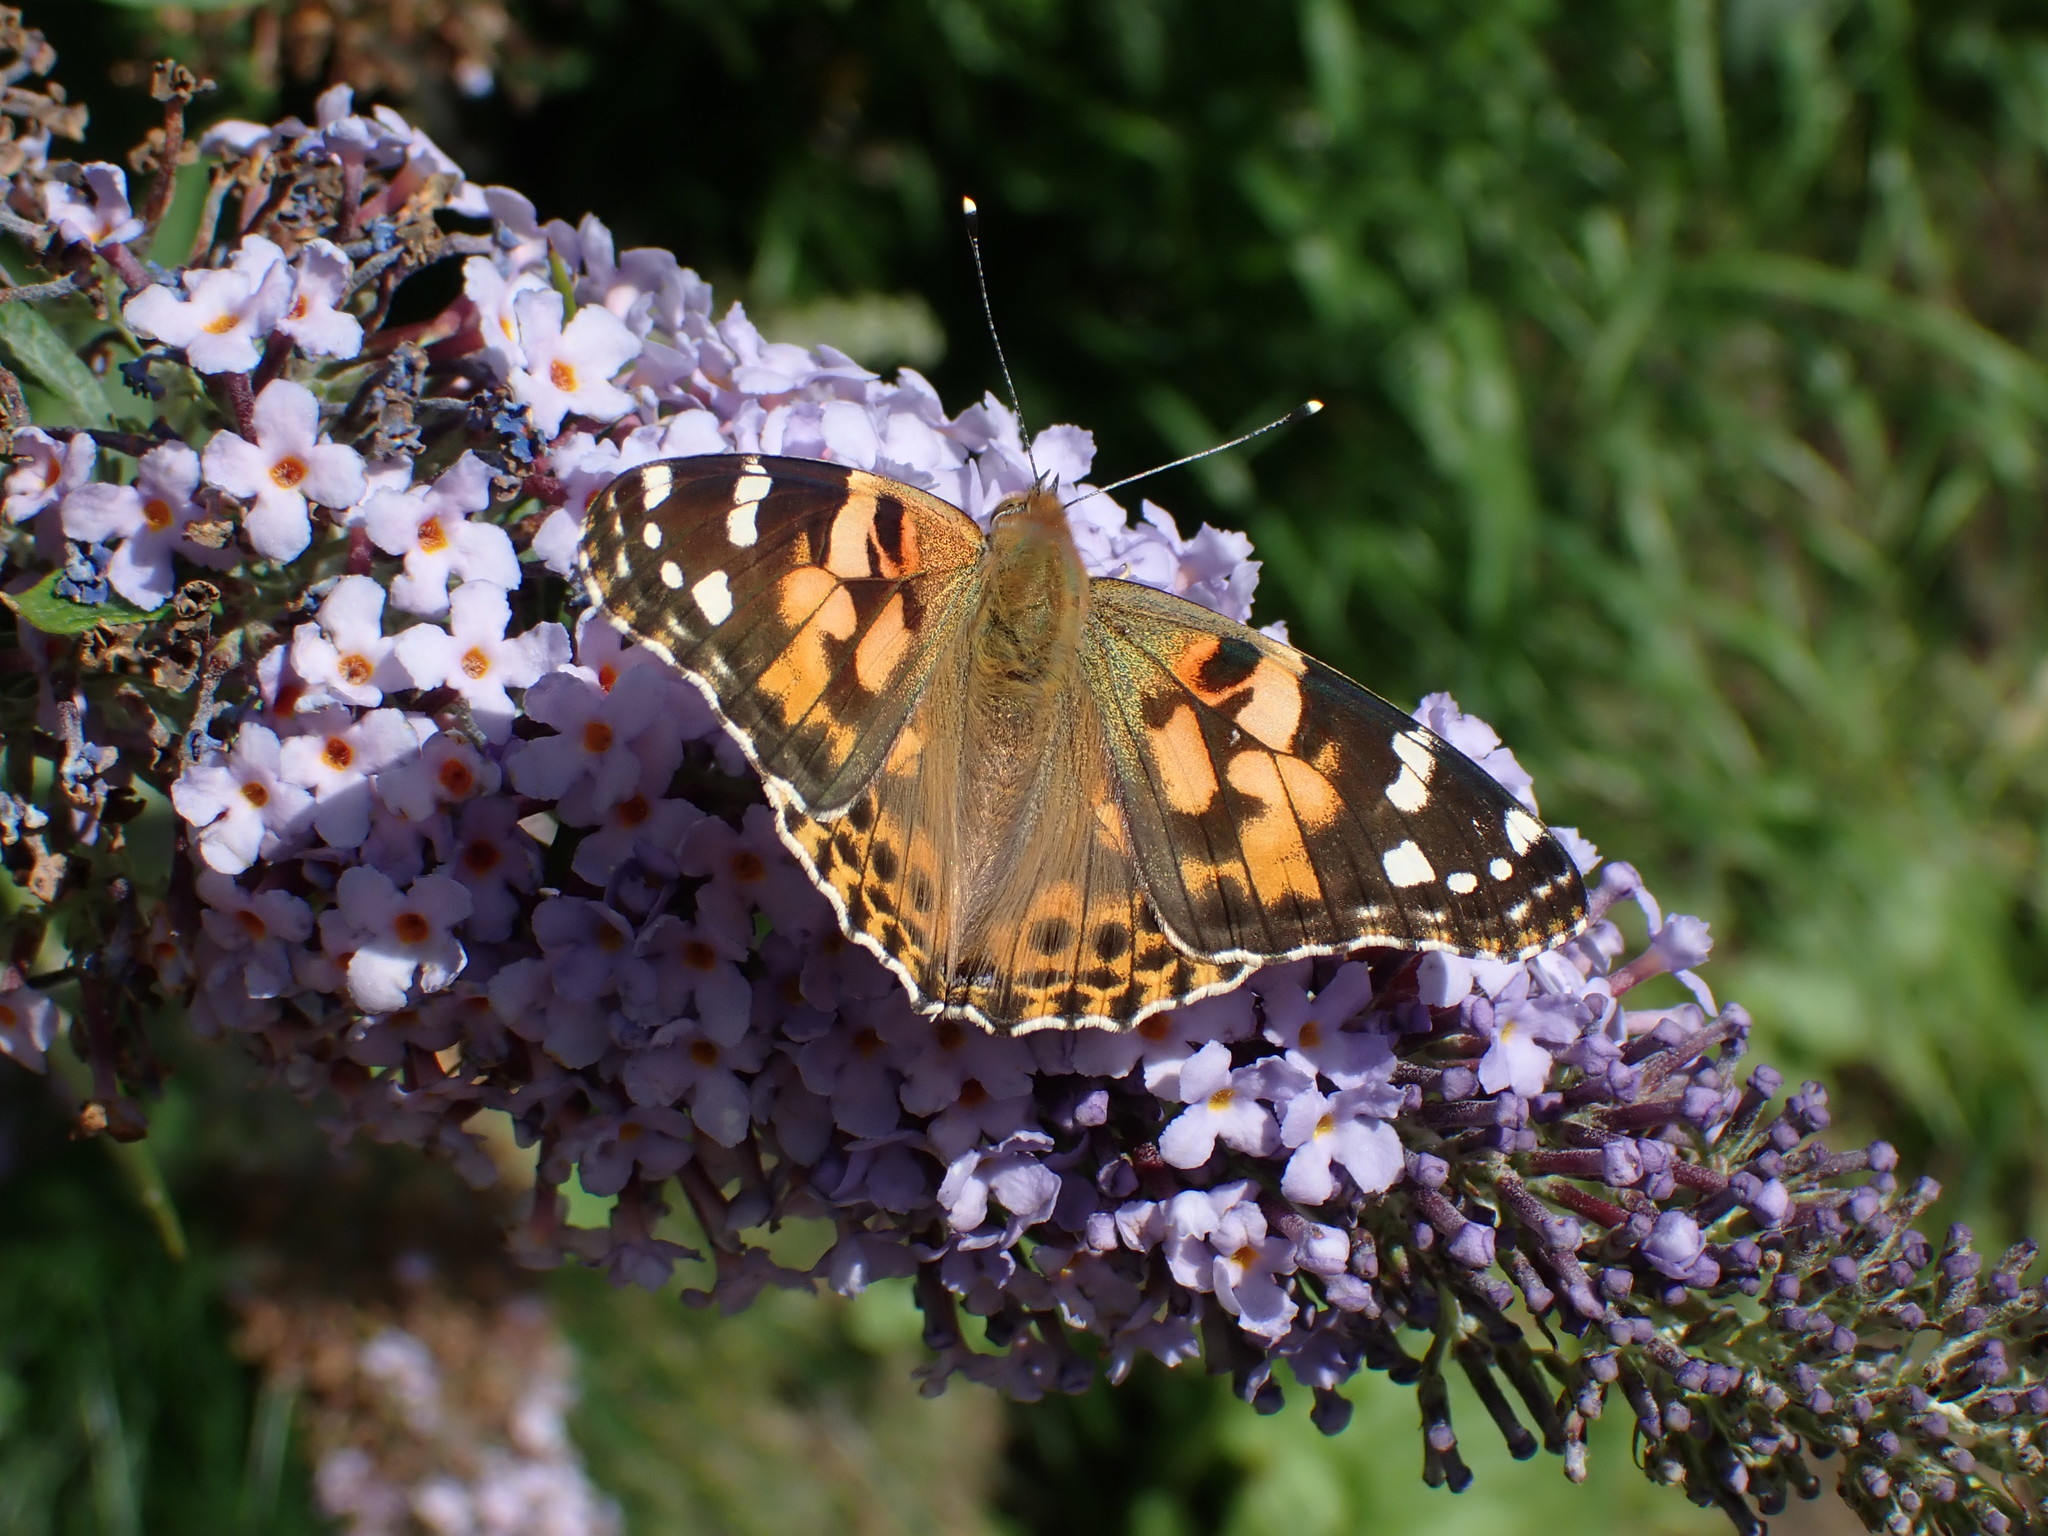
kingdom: Animalia
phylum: Arthropoda
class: Insecta
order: Lepidoptera
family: Nymphalidae
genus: Vanessa
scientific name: Vanessa cardui
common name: Painted lady
